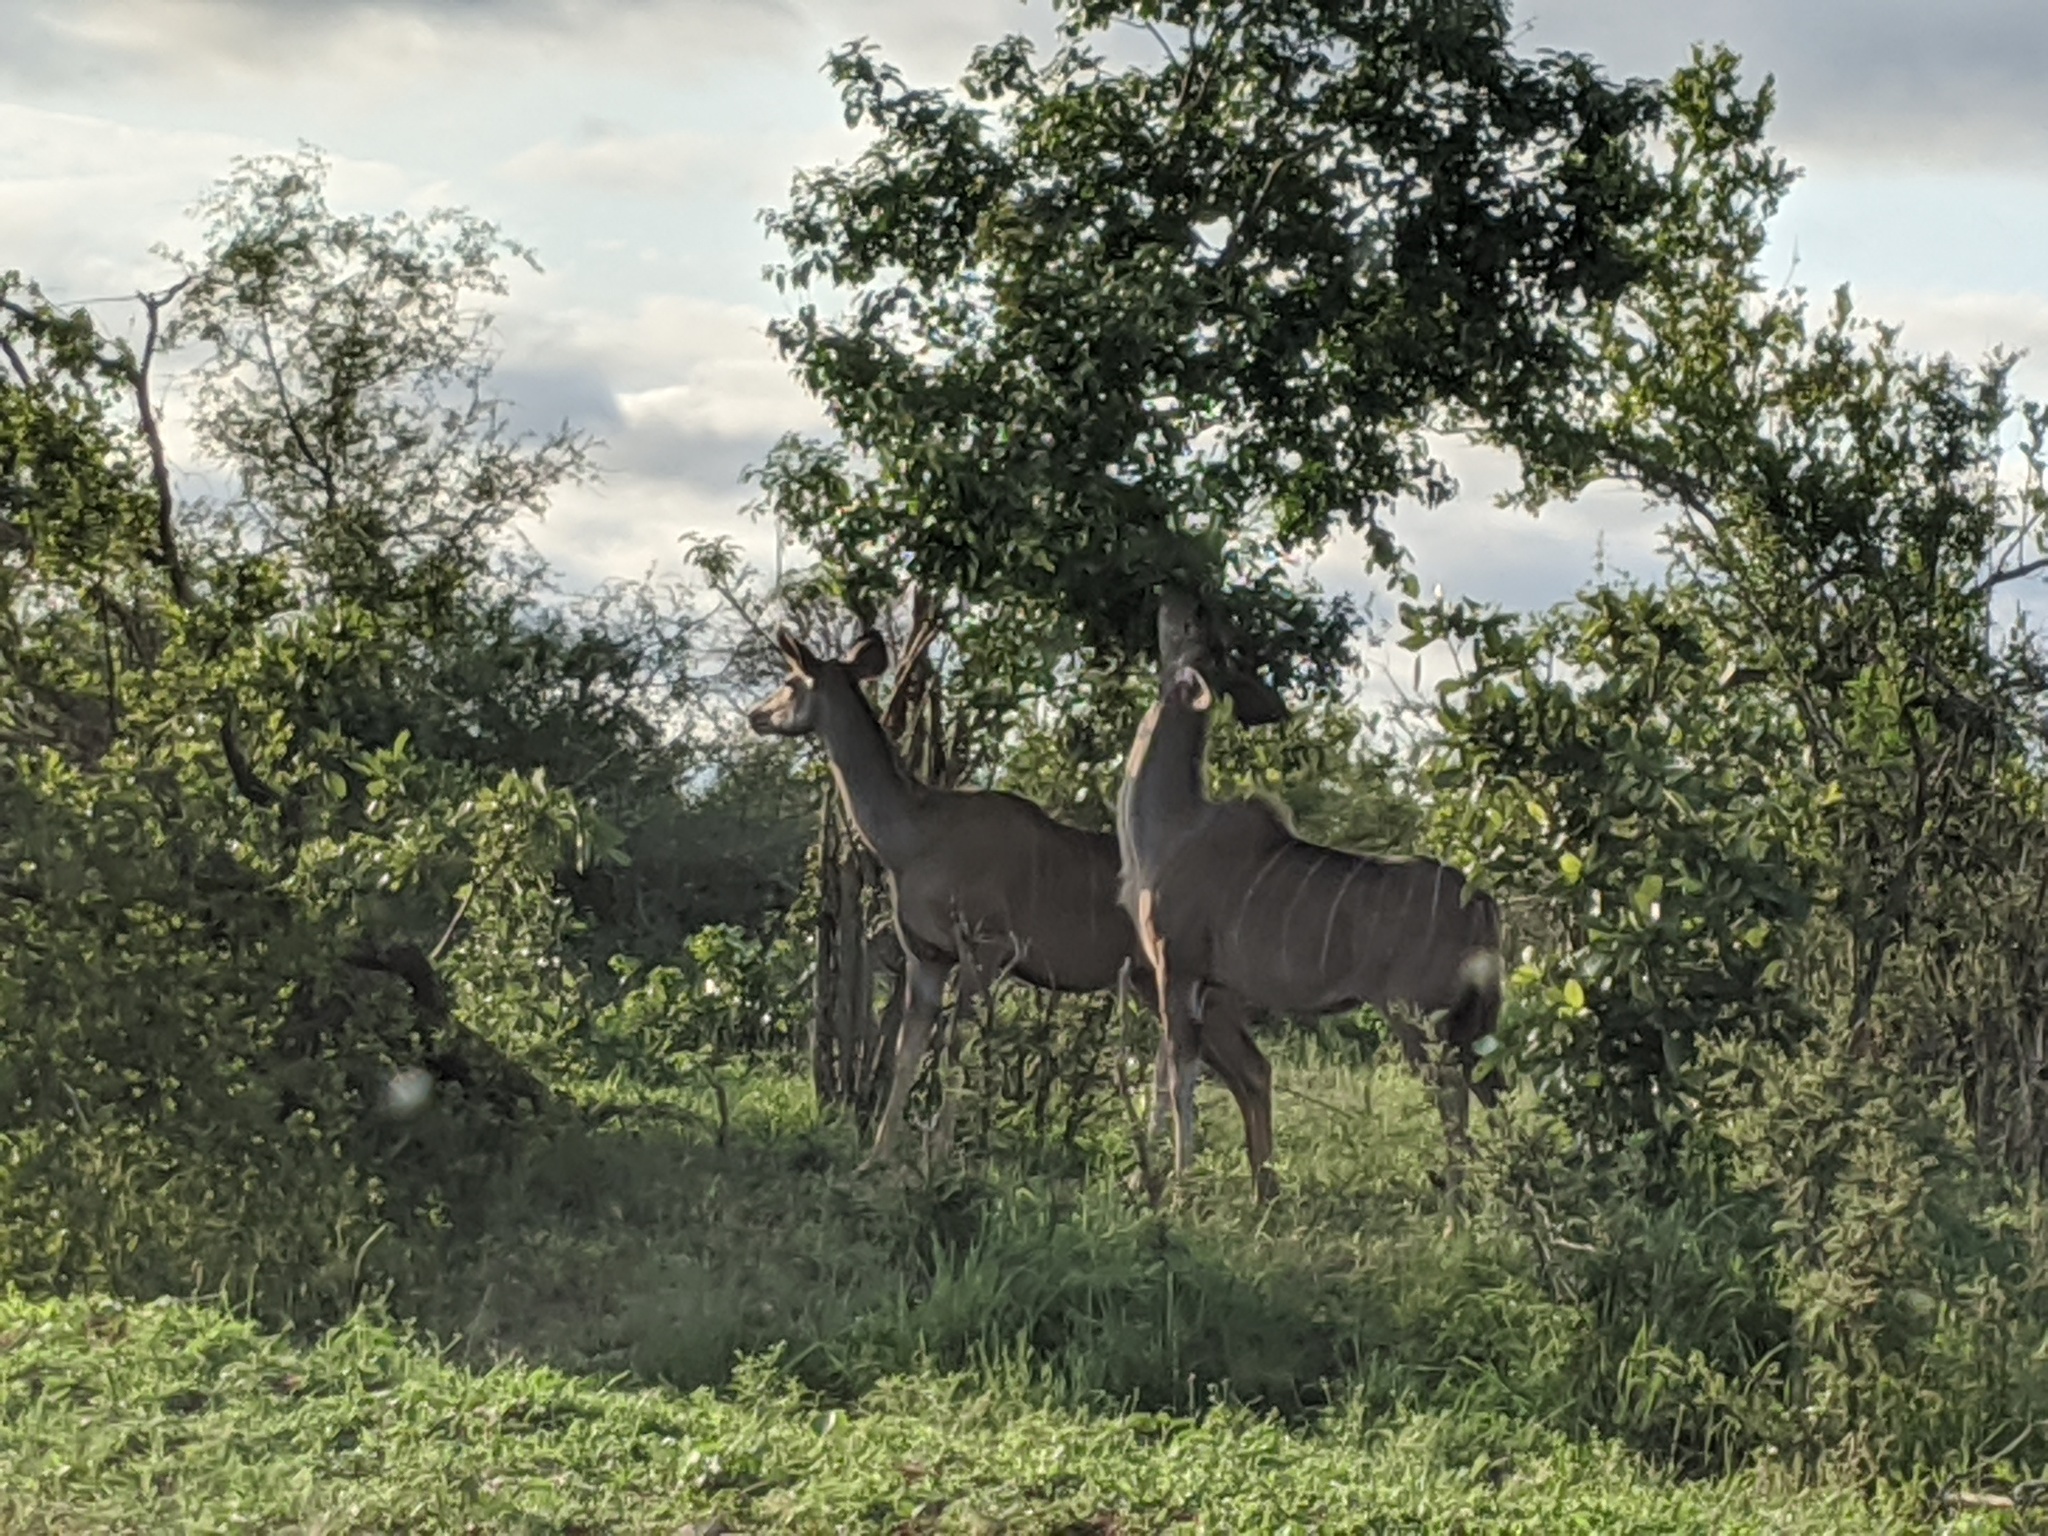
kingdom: Animalia
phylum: Chordata
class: Mammalia
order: Artiodactyla
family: Bovidae
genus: Tragelaphus
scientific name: Tragelaphus strepsiceros
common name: Greater kudu
